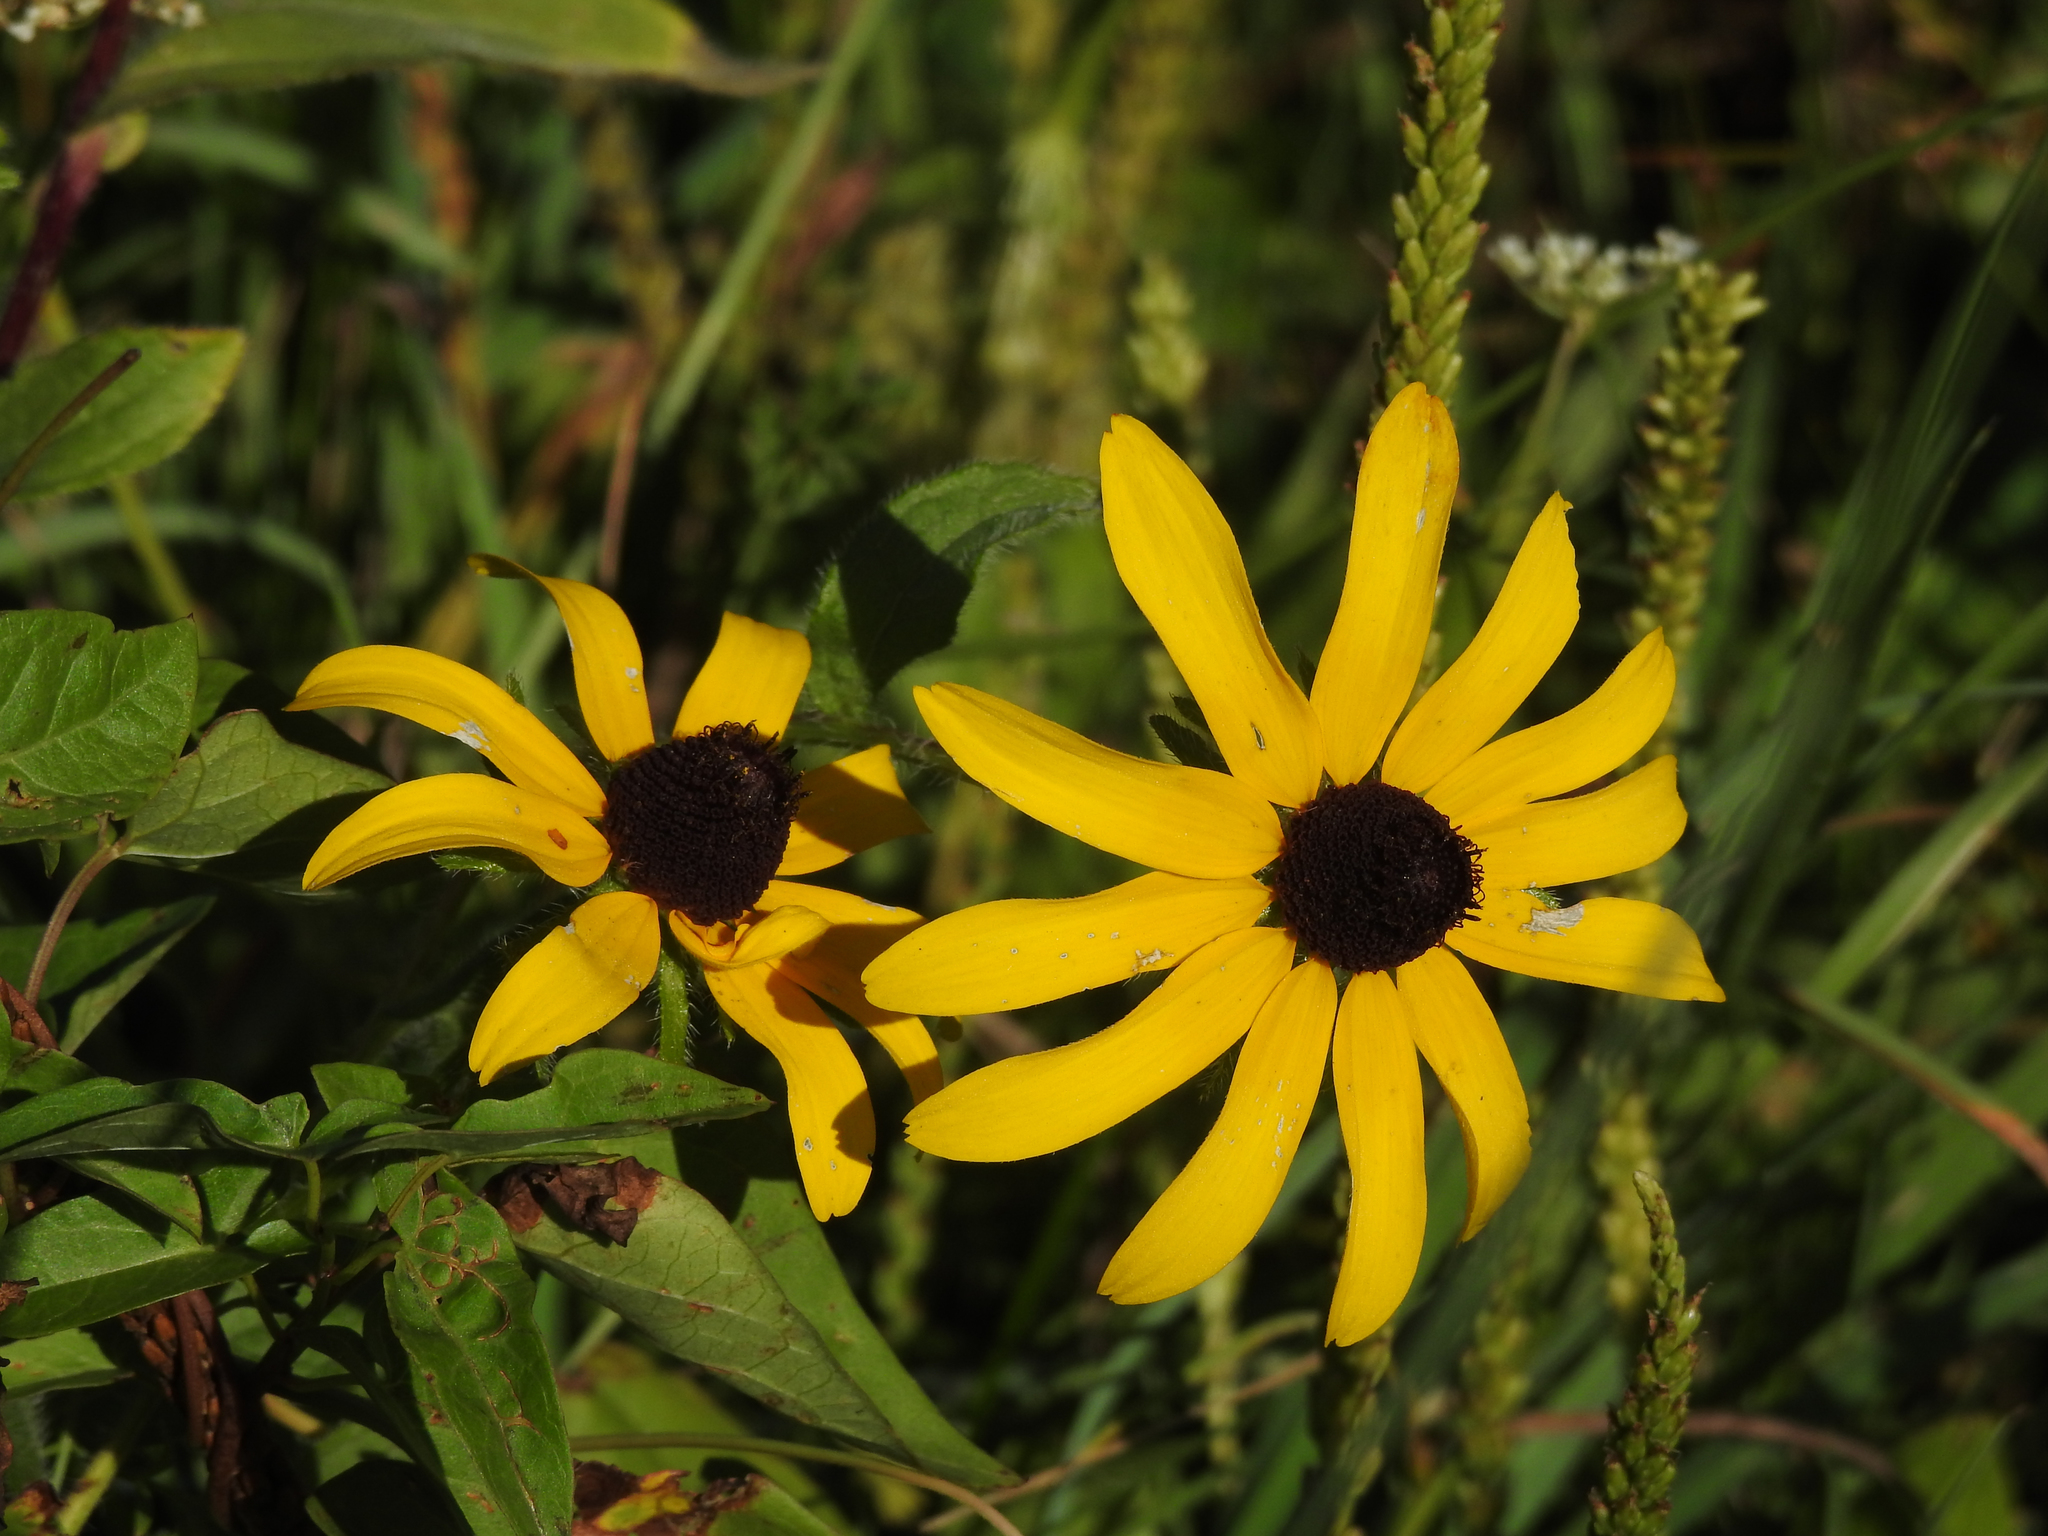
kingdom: Plantae
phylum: Tracheophyta
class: Magnoliopsida
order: Asterales
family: Asteraceae
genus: Rudbeckia
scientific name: Rudbeckia hirta
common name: Black-eyed-susan
